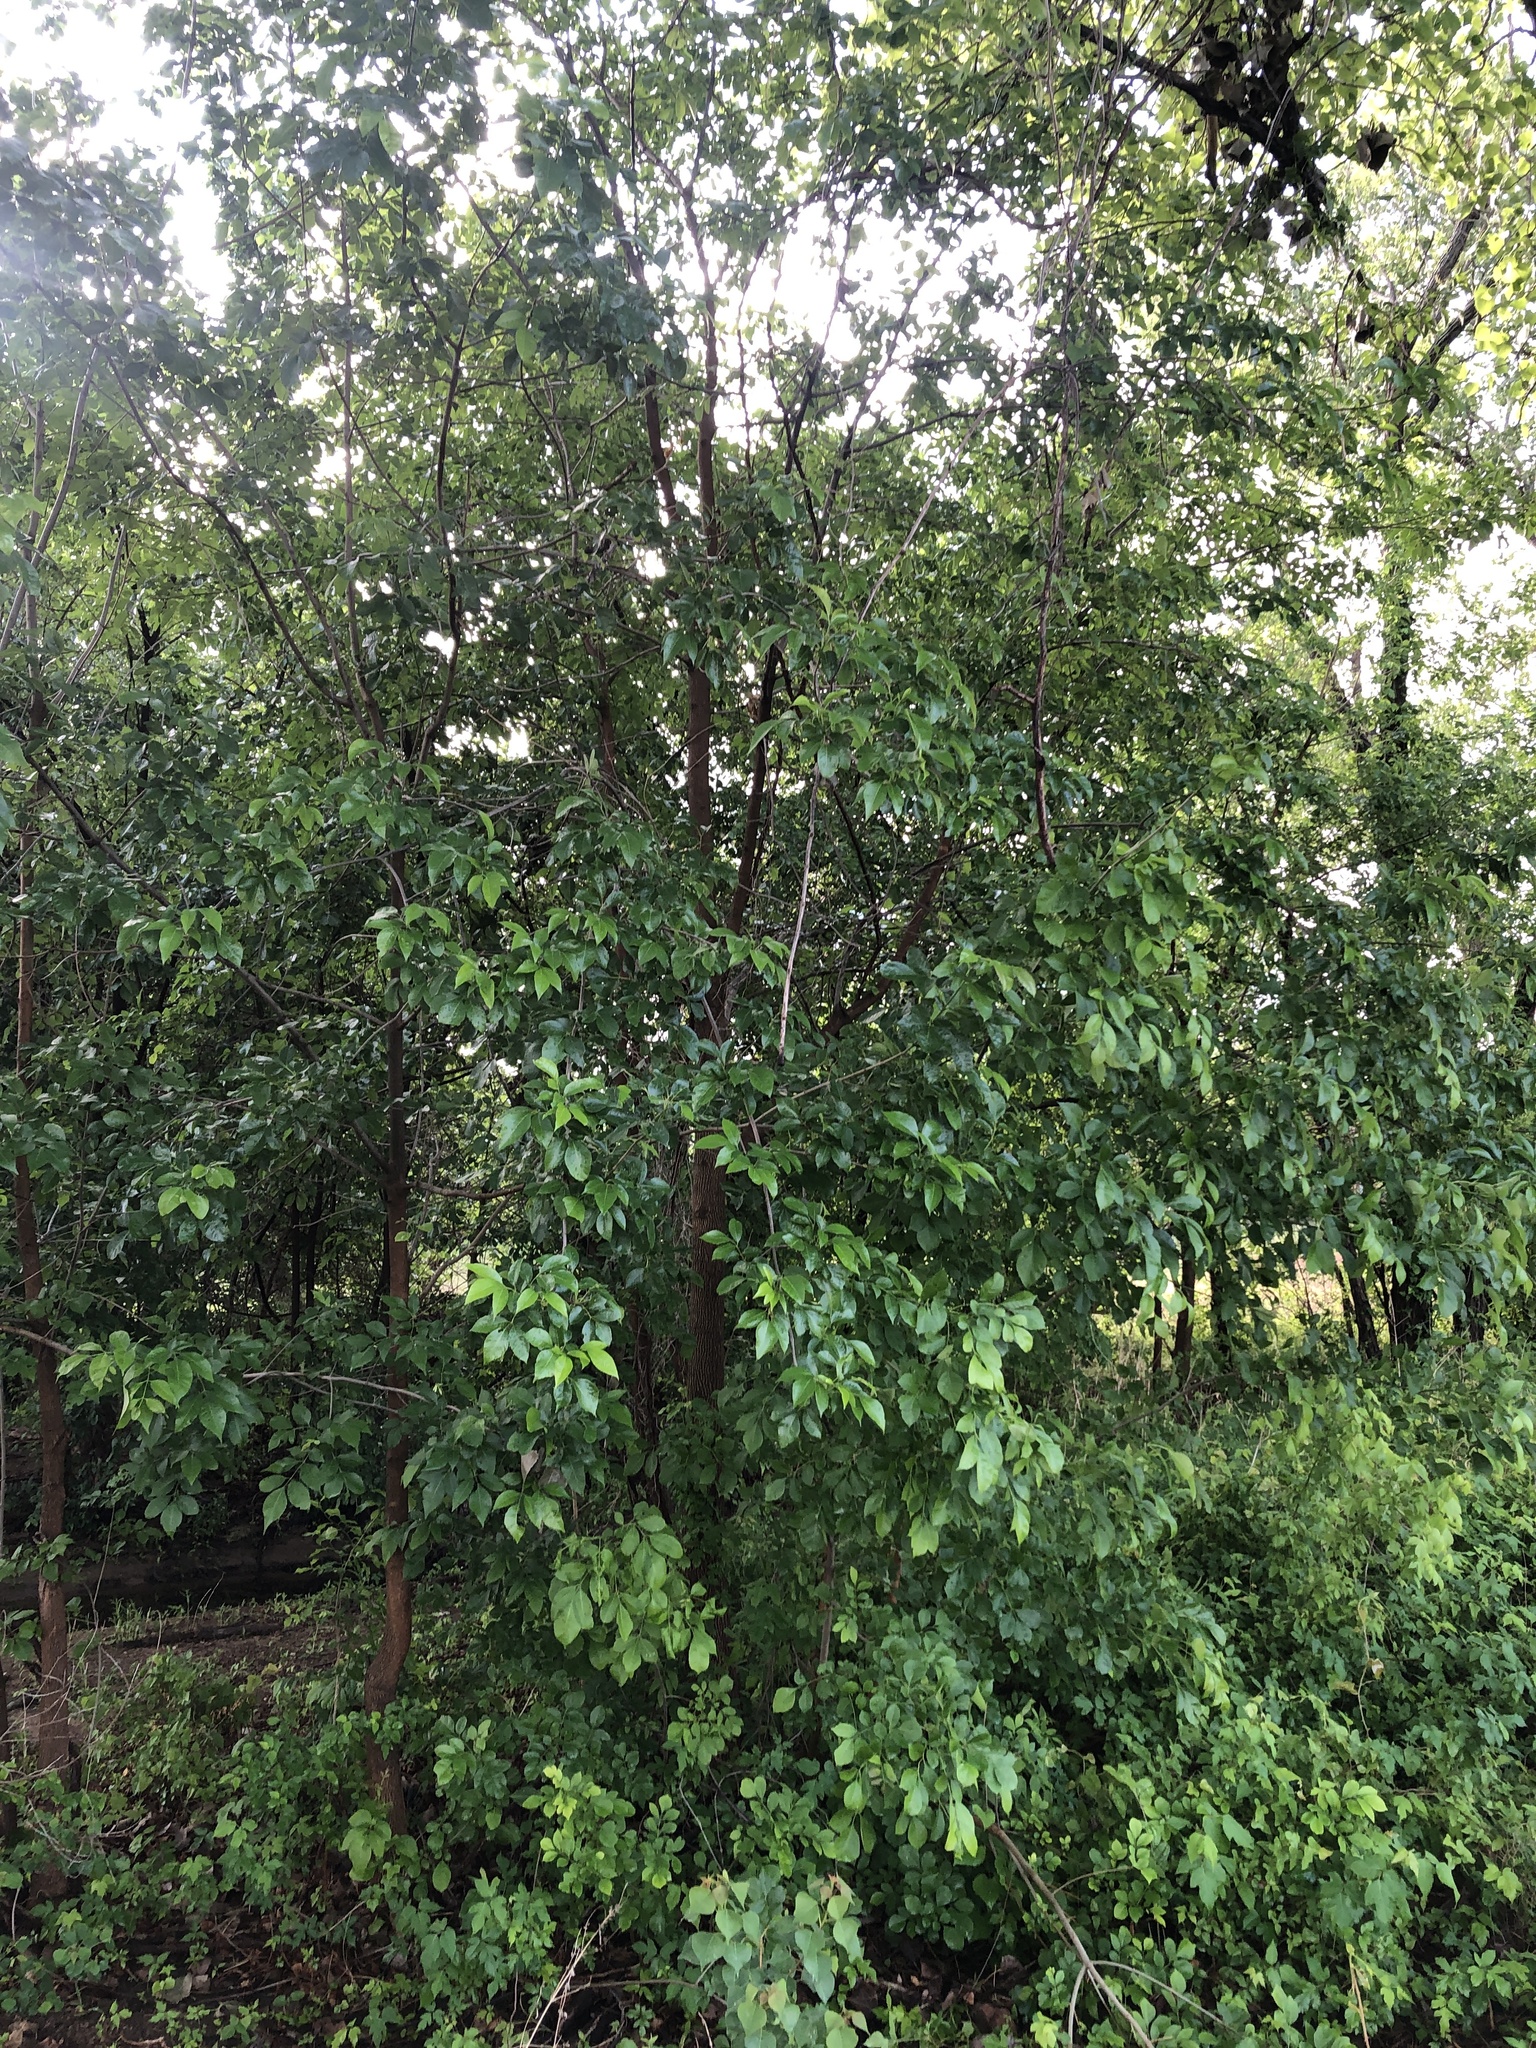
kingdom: Plantae
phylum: Tracheophyta
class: Magnoliopsida
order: Lamiales
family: Oleaceae
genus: Fraxinus
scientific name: Fraxinus pennsylvanica
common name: Green ash
